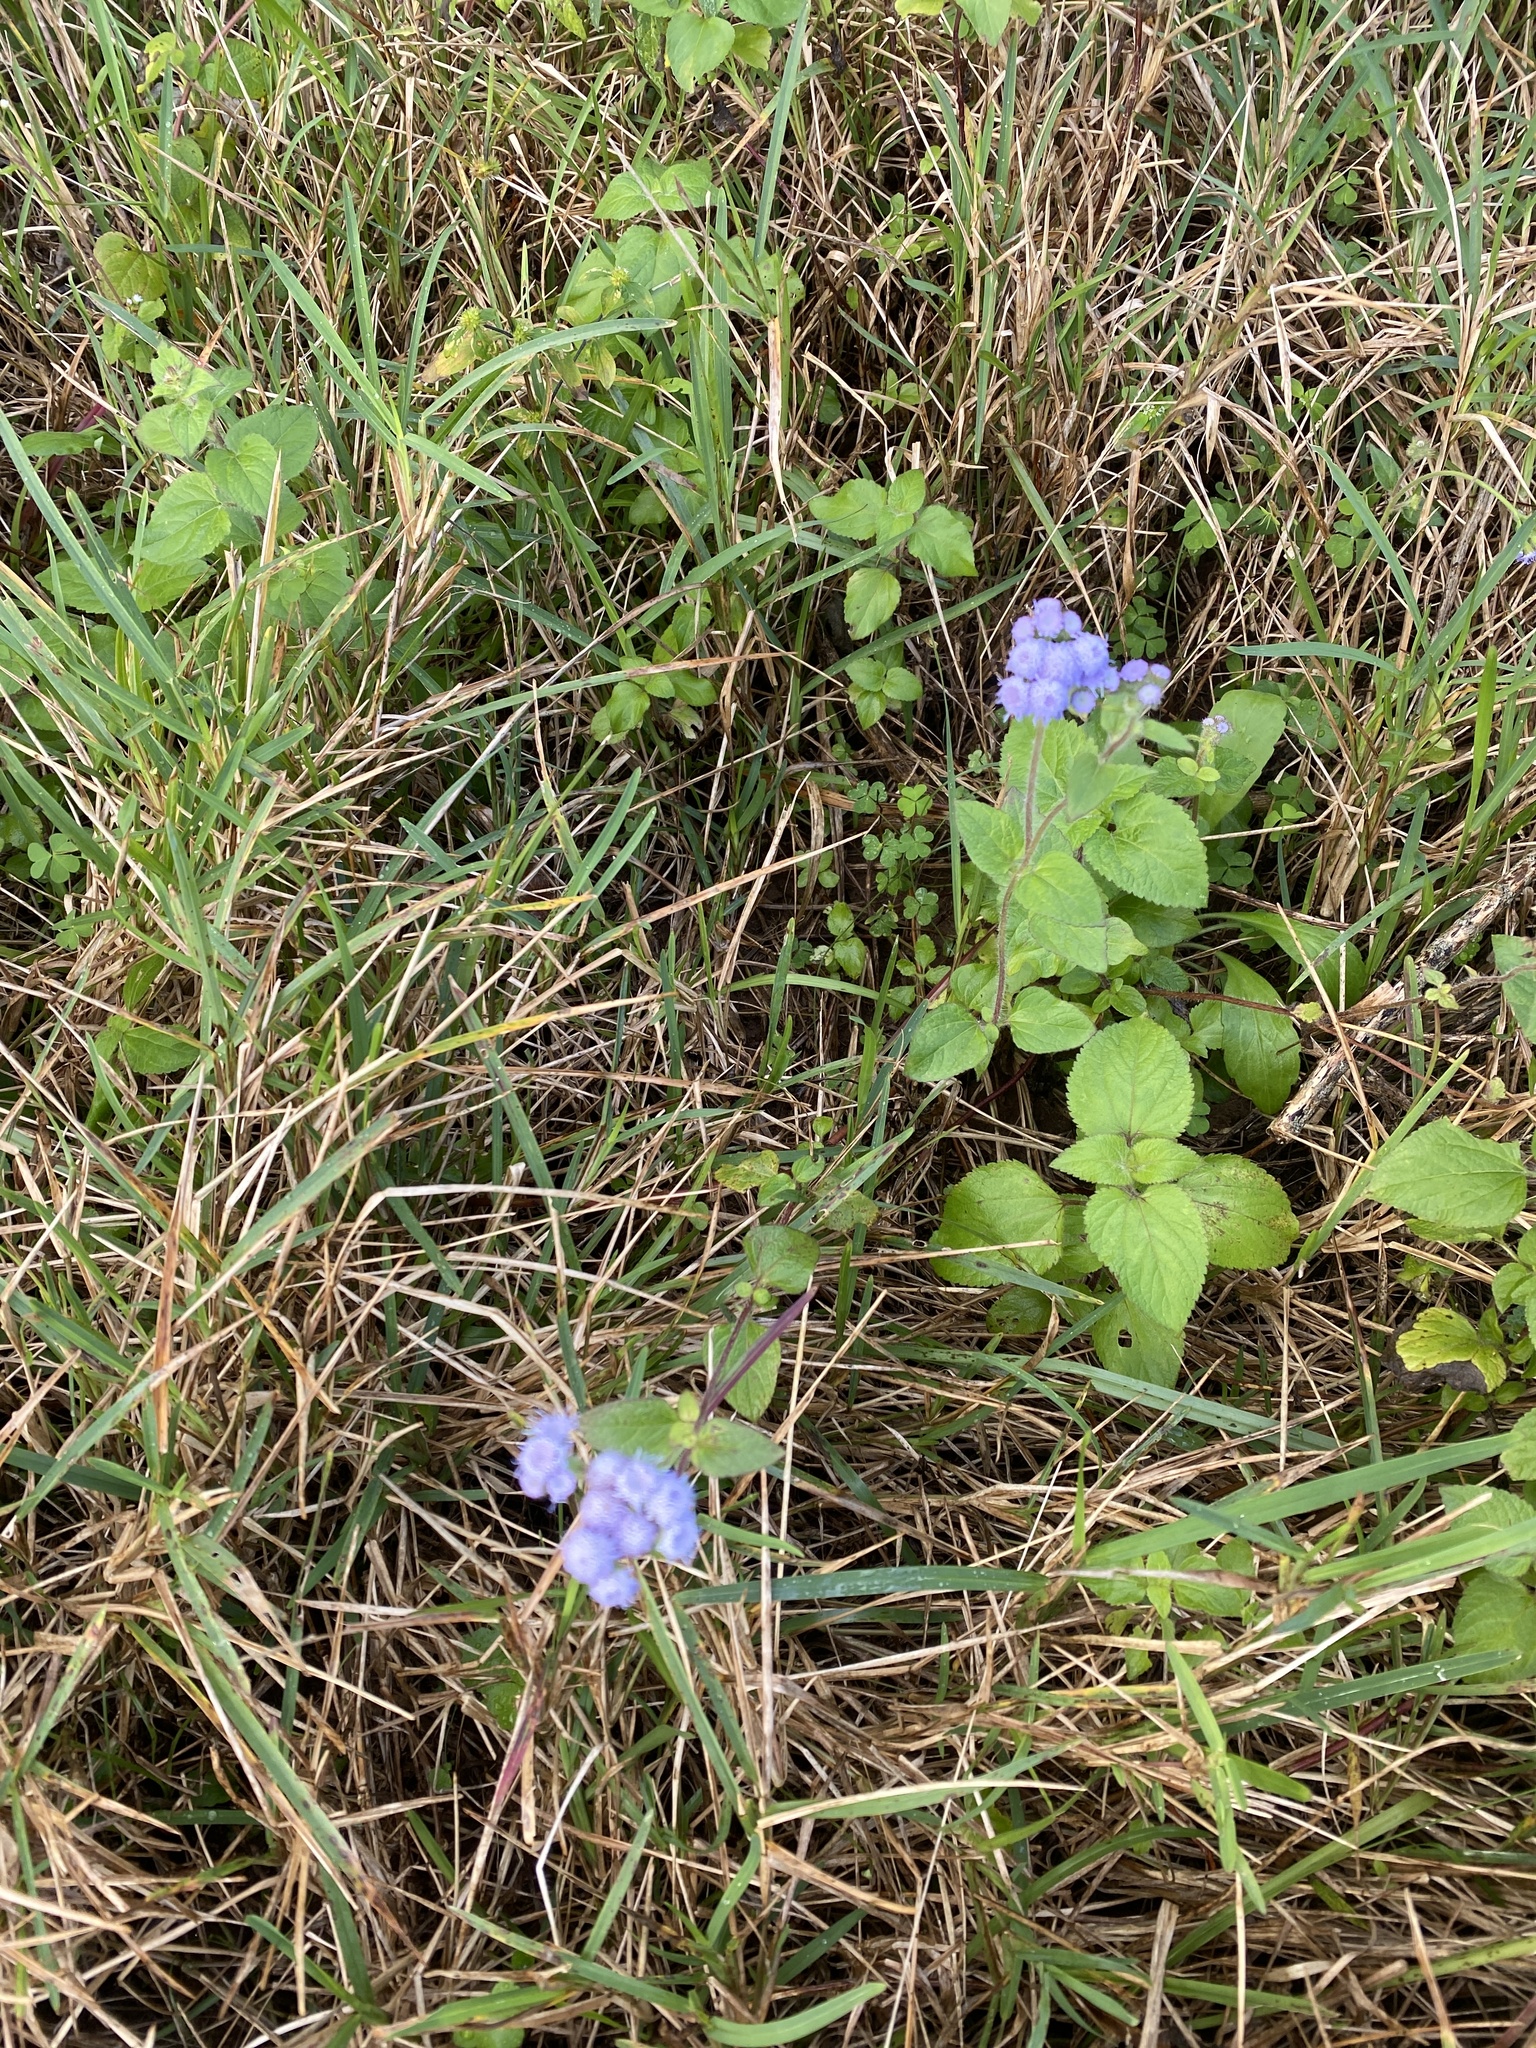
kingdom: Plantae
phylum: Tracheophyta
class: Magnoliopsida
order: Asterales
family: Asteraceae
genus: Ageratum
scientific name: Ageratum houstonianum
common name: Bluemink
